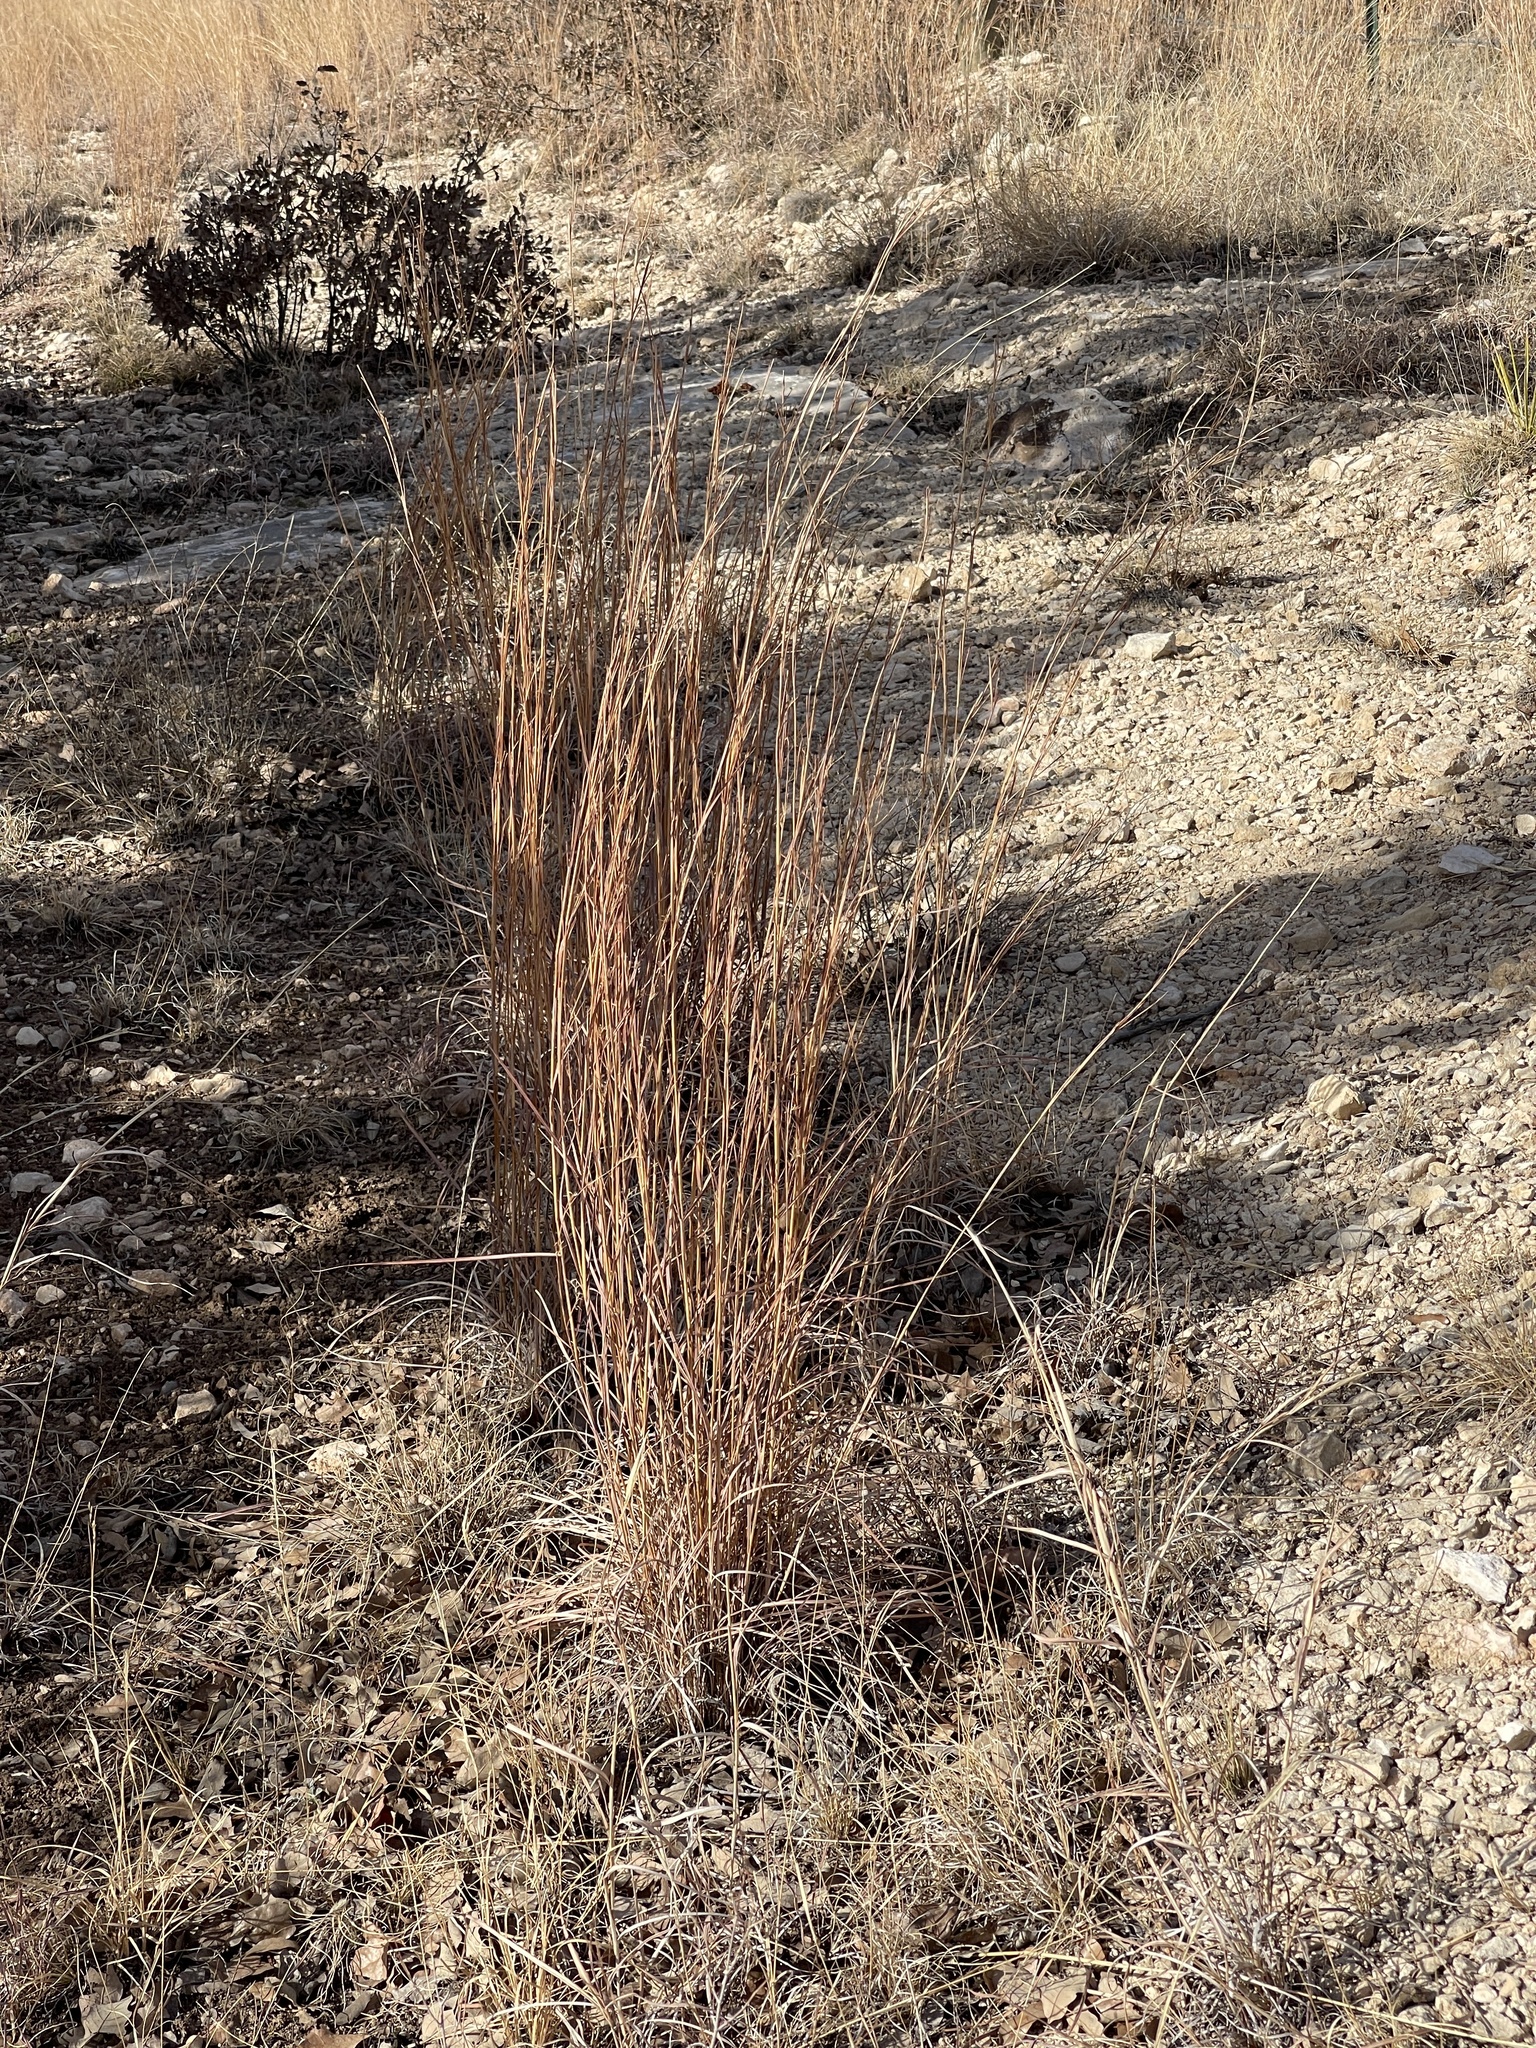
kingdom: Plantae
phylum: Tracheophyta
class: Liliopsida
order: Poales
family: Poaceae
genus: Schizachyrium
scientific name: Schizachyrium scoparium
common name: Little bluestem
